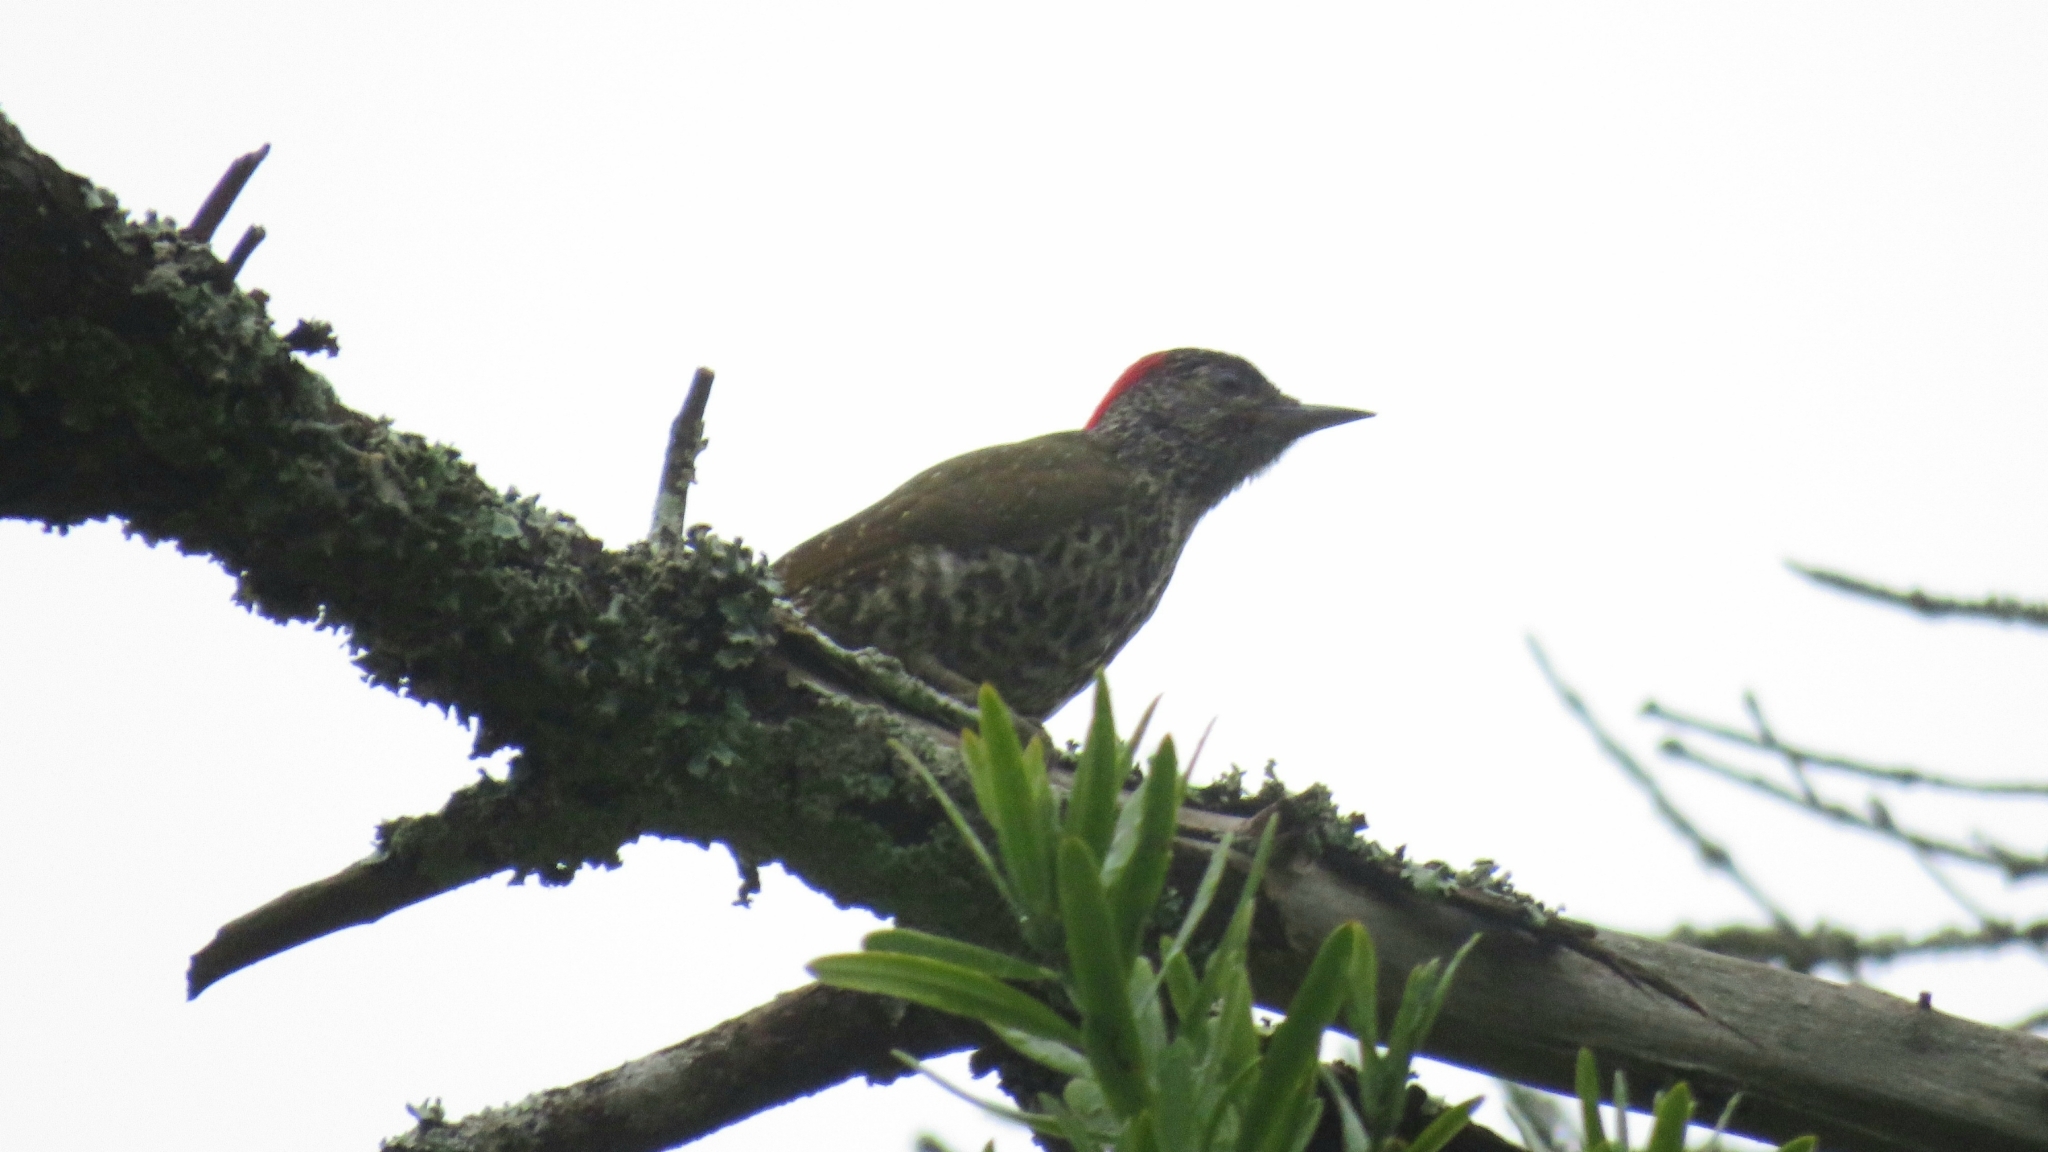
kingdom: Animalia
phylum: Chordata
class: Aves
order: Piciformes
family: Picidae
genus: Campethera
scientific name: Campethera notata
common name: Knysna woodpecker
